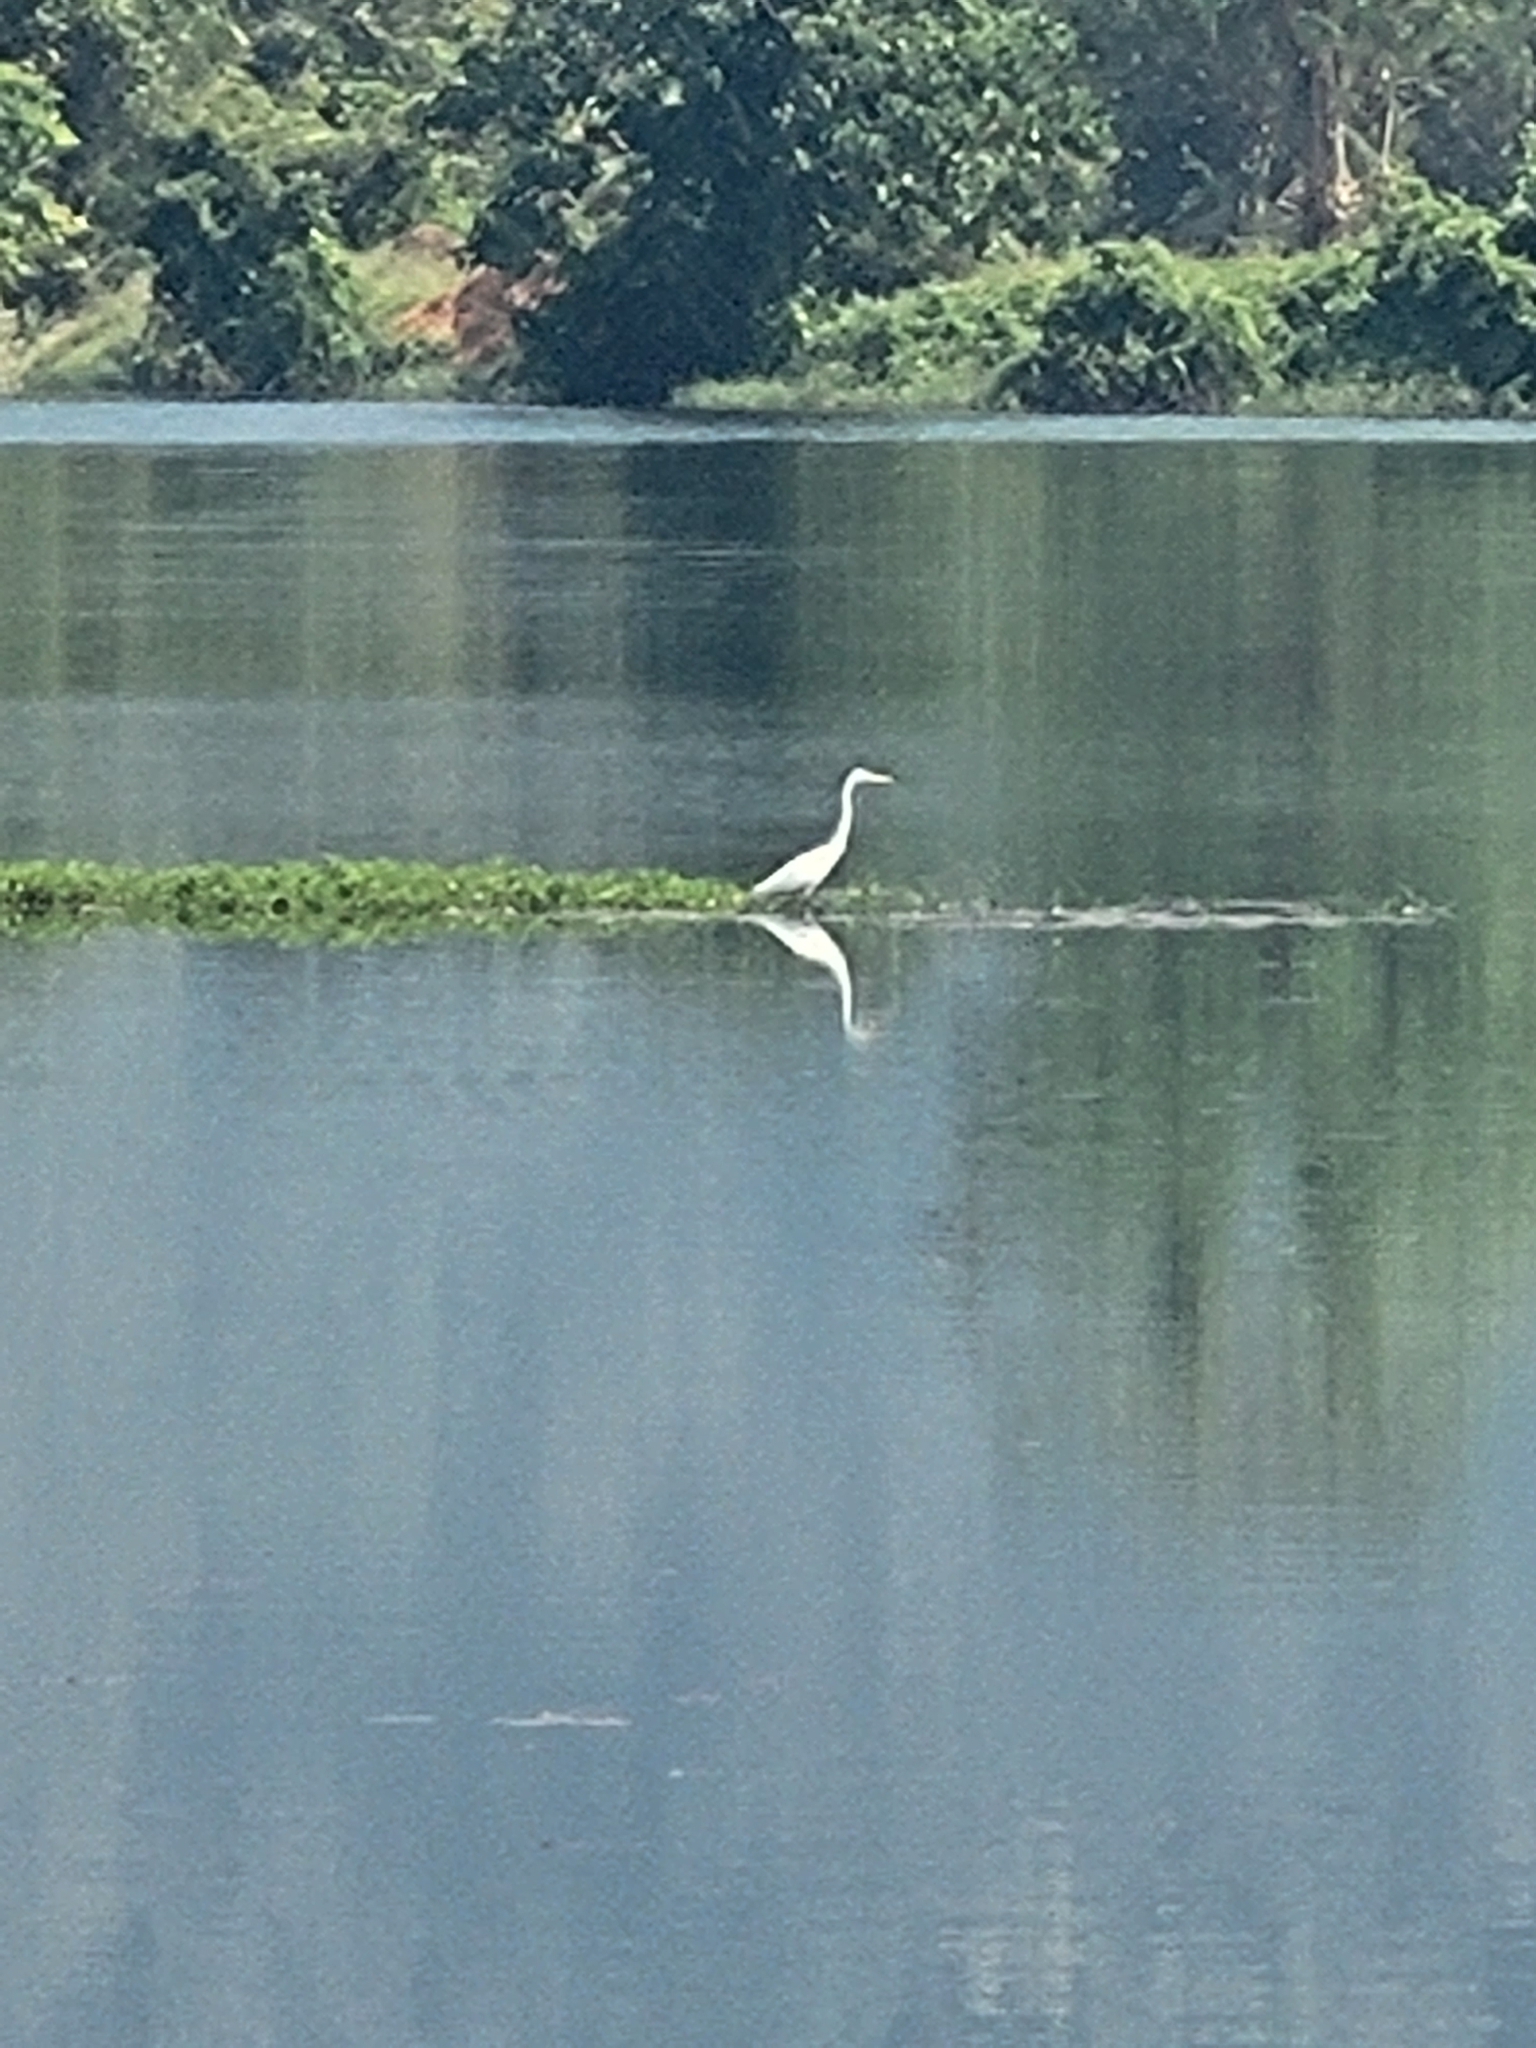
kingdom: Animalia
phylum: Chordata
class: Aves
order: Pelecaniformes
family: Ardeidae
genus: Ardea
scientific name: Ardea alba
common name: Great egret
